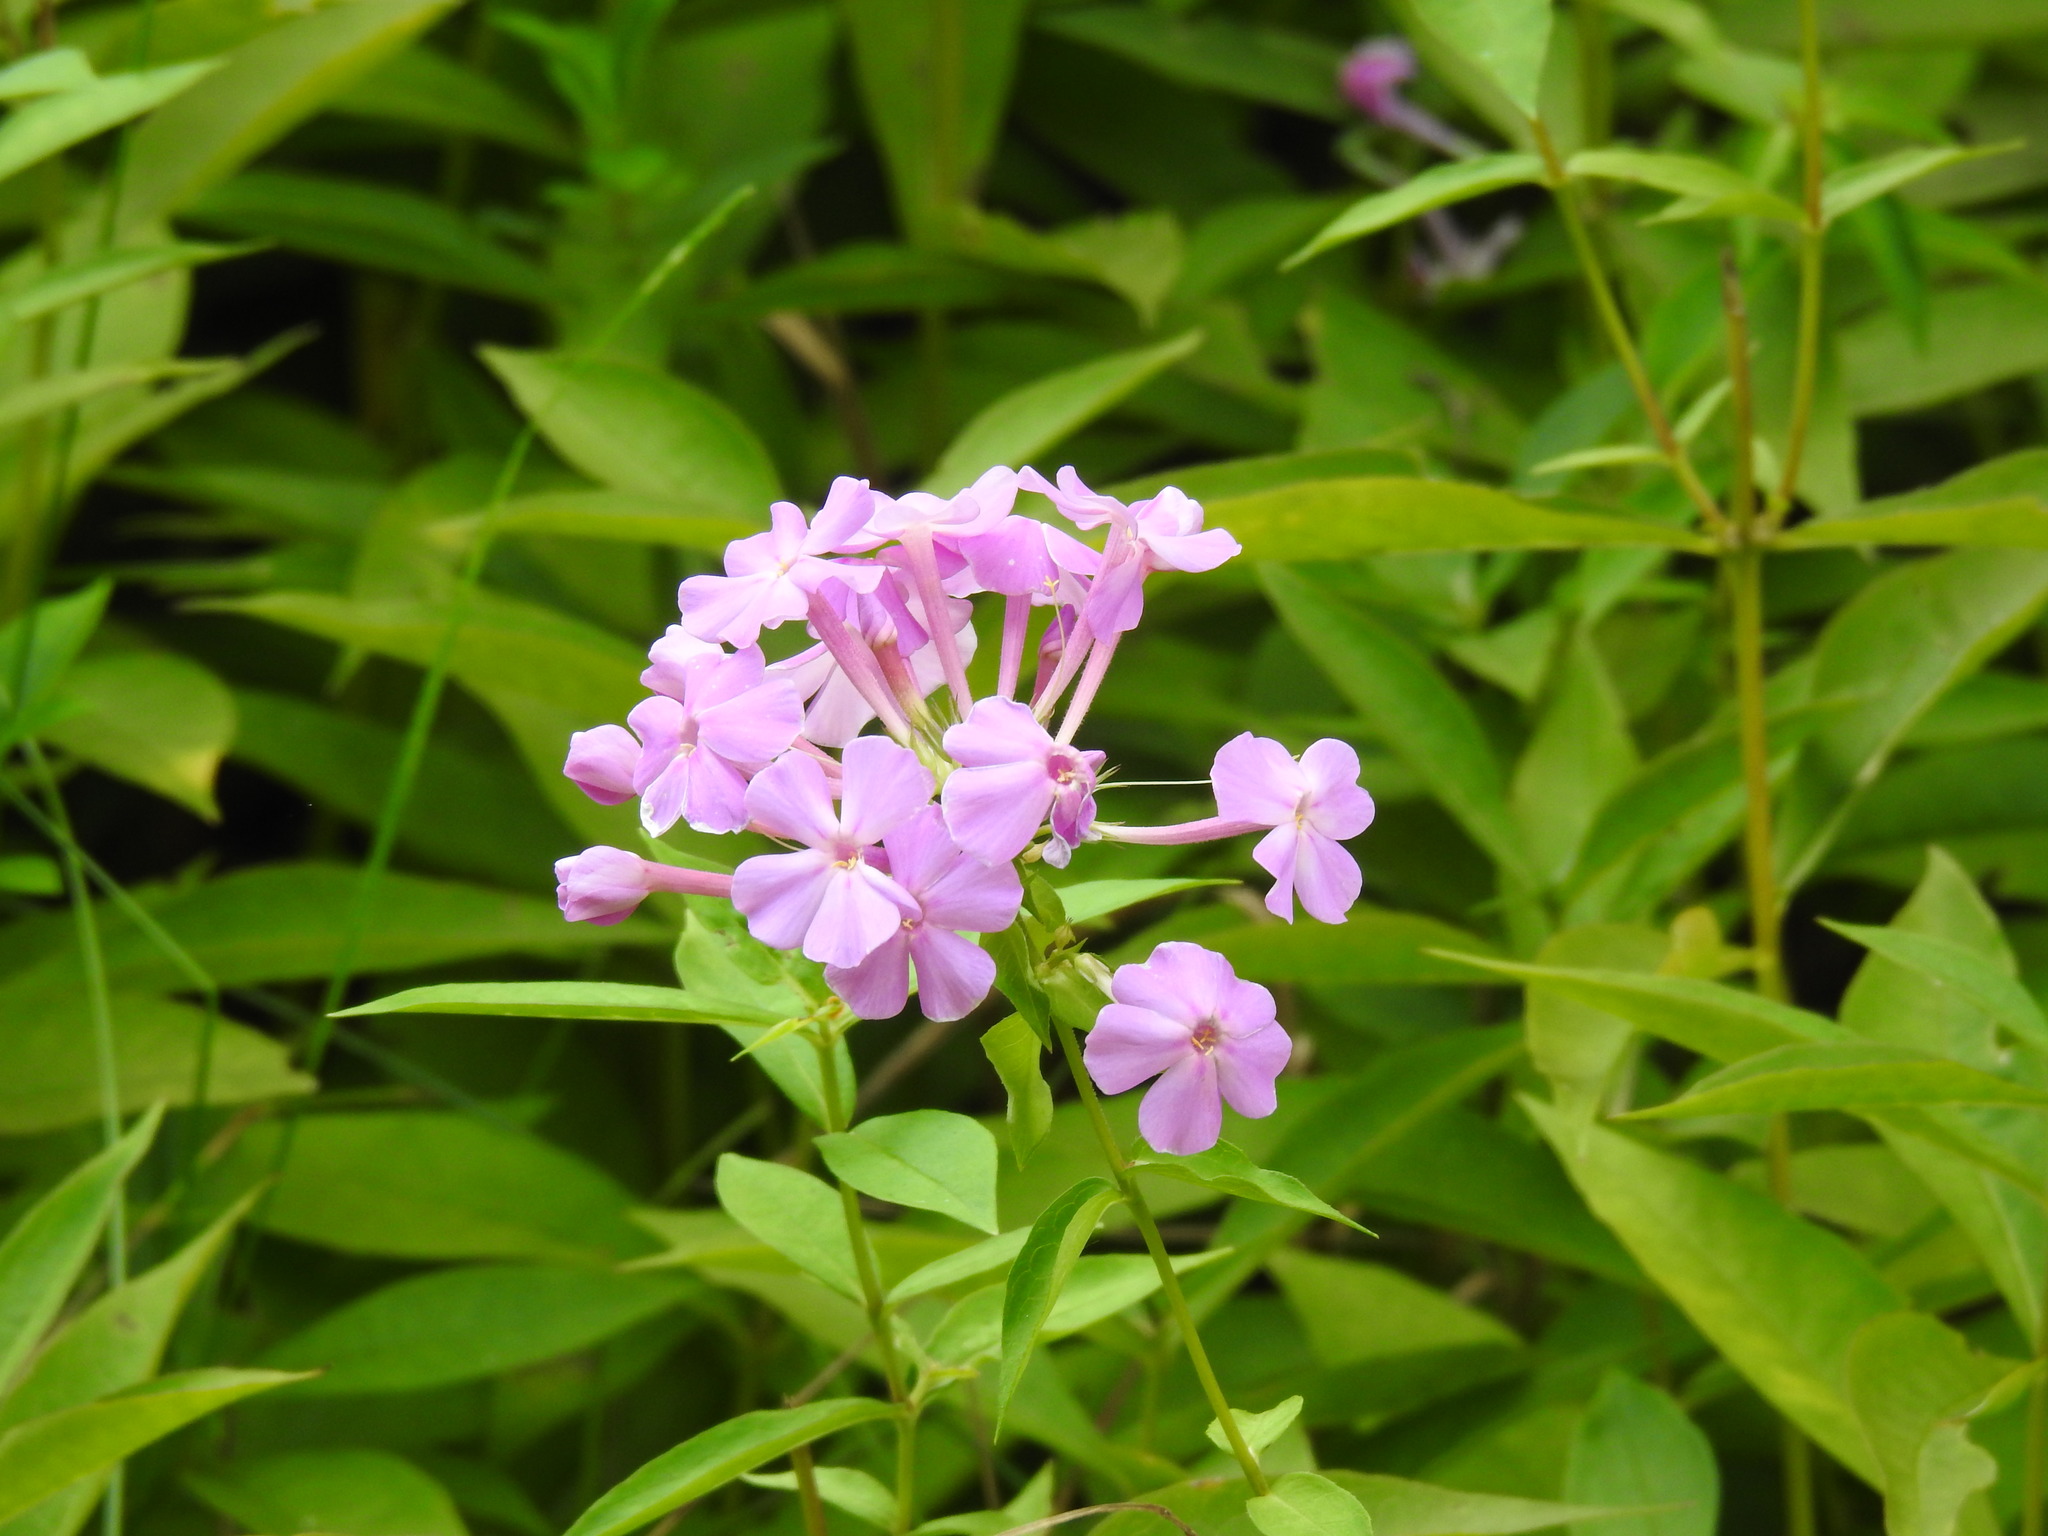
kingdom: Plantae
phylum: Tracheophyta
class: Magnoliopsida
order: Ericales
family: Polemoniaceae
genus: Phlox
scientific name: Phlox paniculata
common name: Fall phlox
